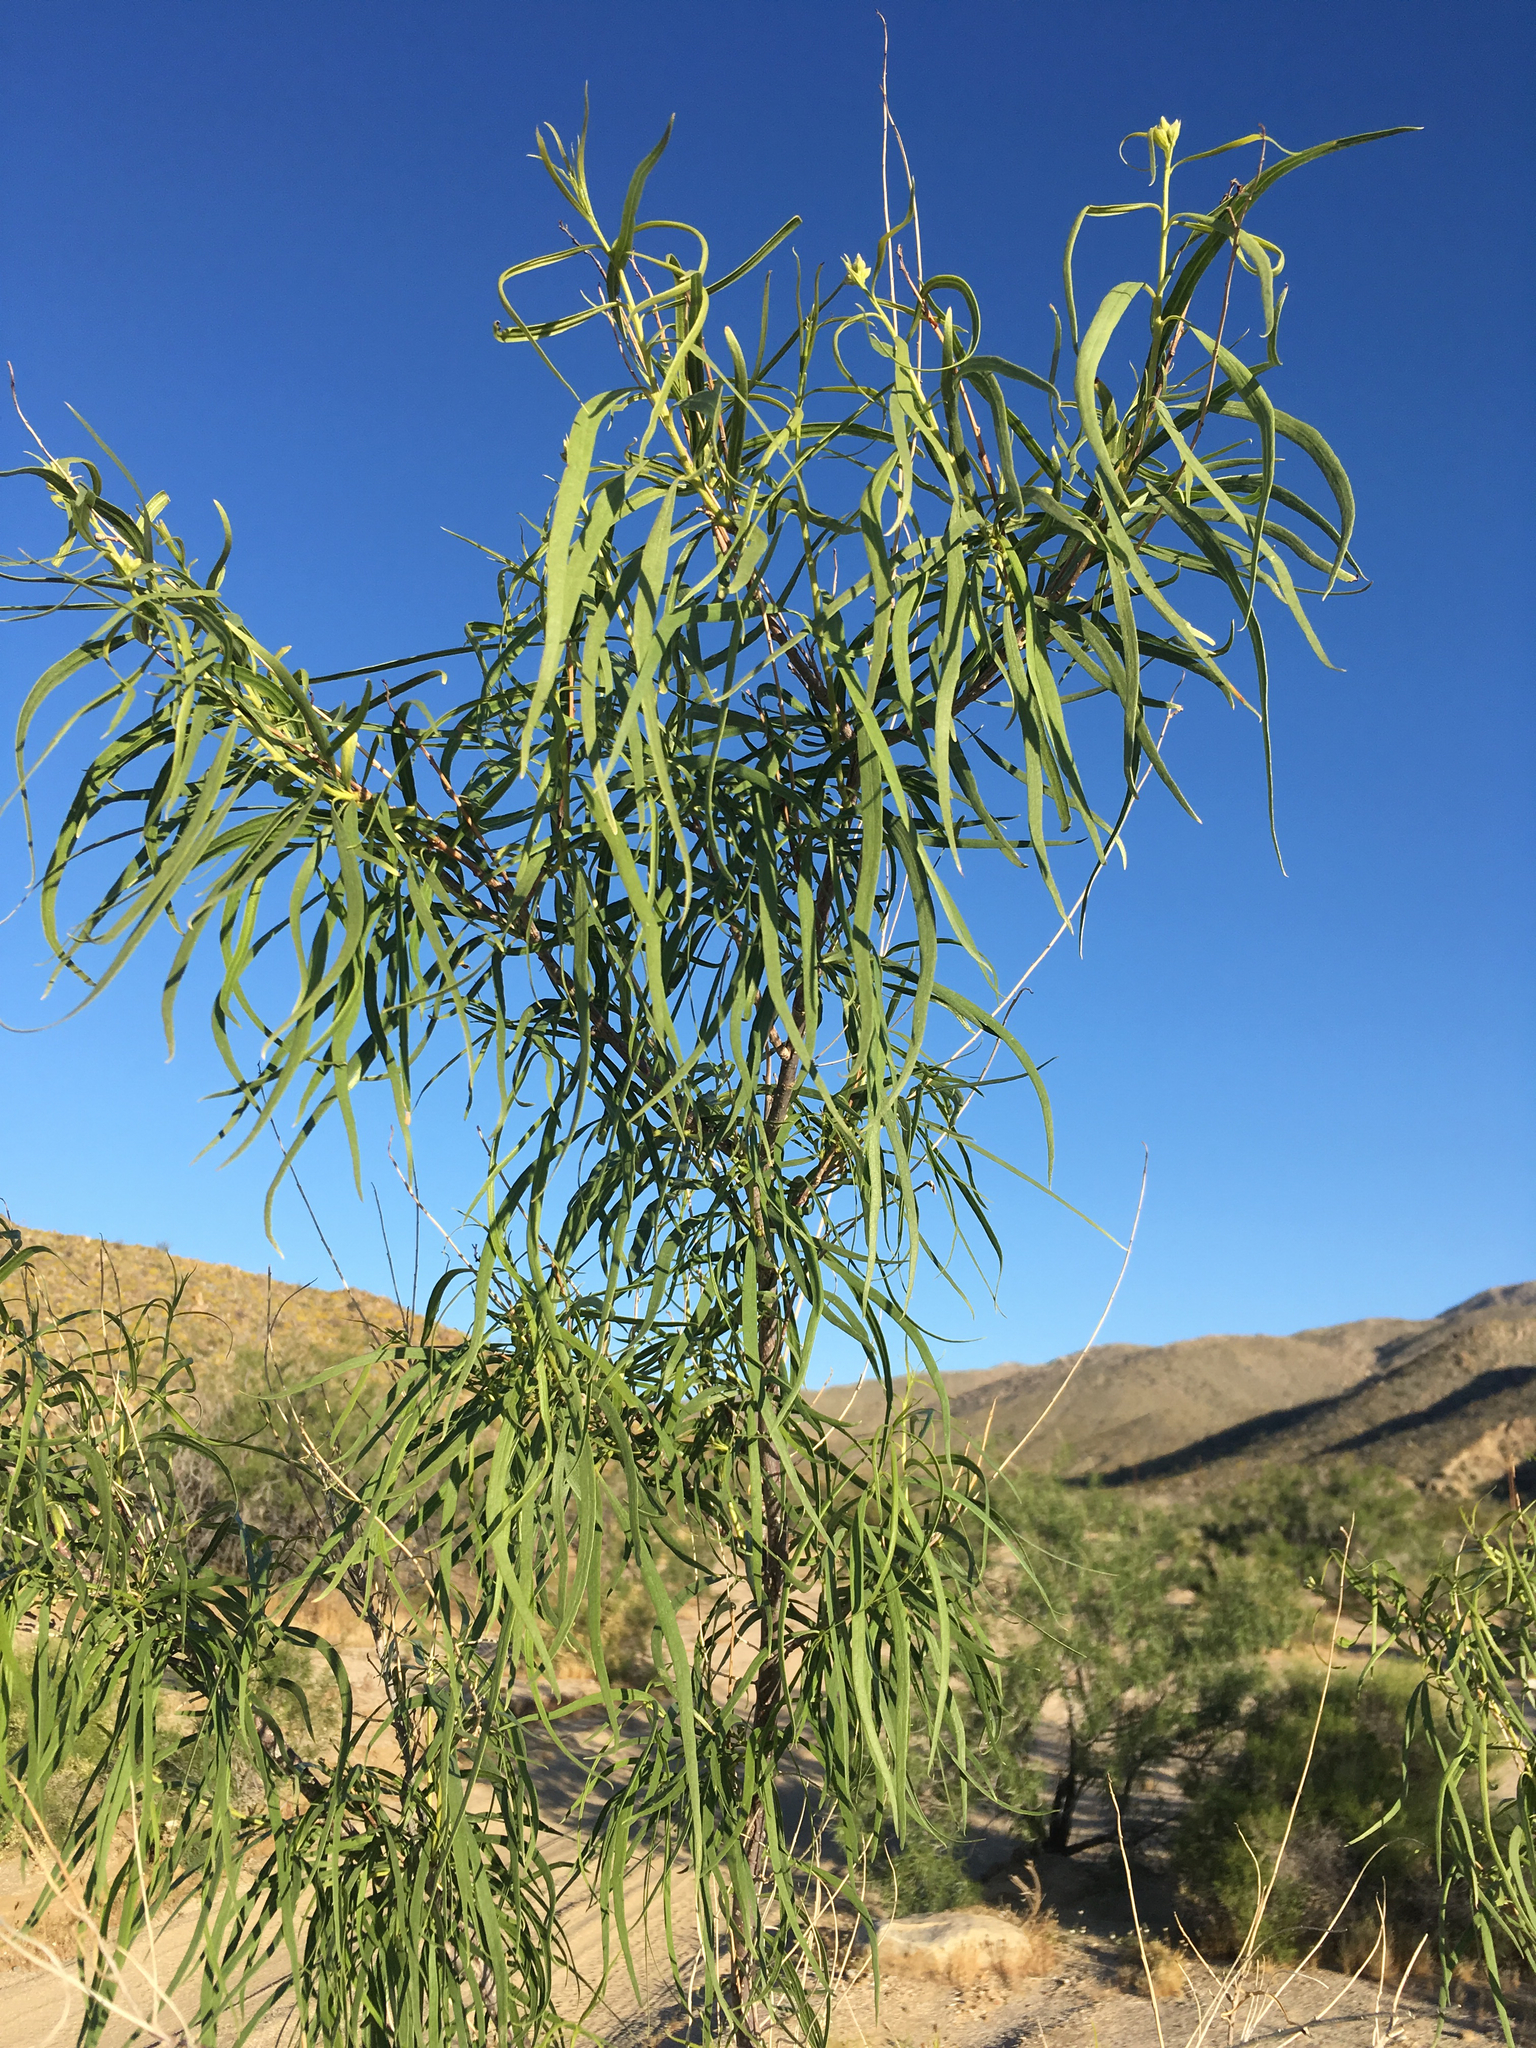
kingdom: Plantae
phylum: Tracheophyta
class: Magnoliopsida
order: Lamiales
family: Bignoniaceae
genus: Chilopsis
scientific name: Chilopsis linearis
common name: Desert-willow
